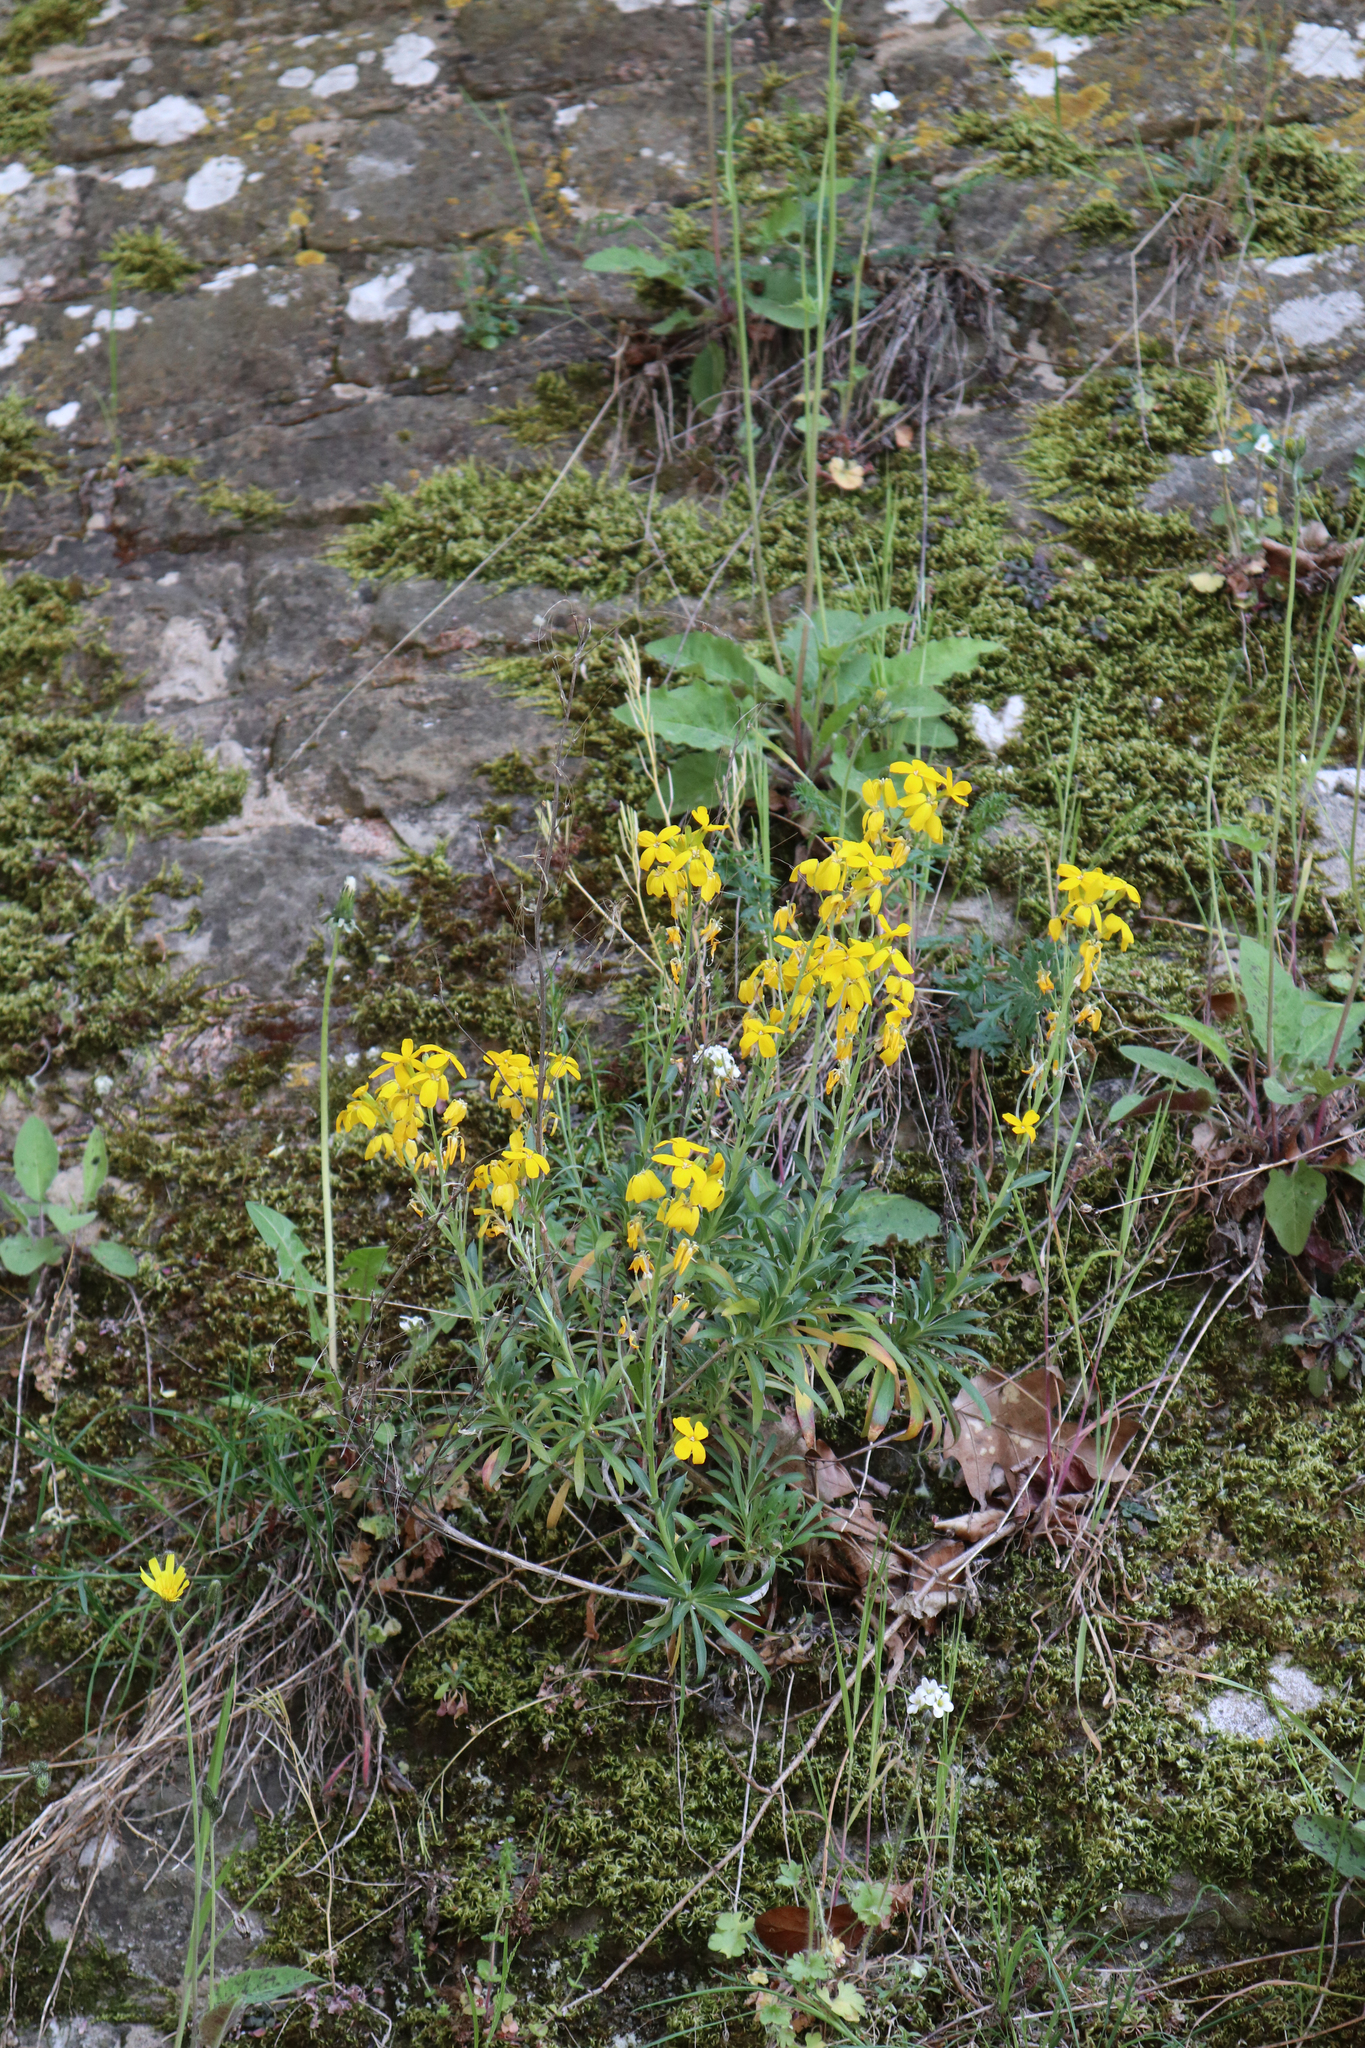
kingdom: Plantae
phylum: Tracheophyta
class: Magnoliopsida
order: Brassicales
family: Brassicaceae
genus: Erysimum
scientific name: Erysimum cheiri
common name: Wallflower
